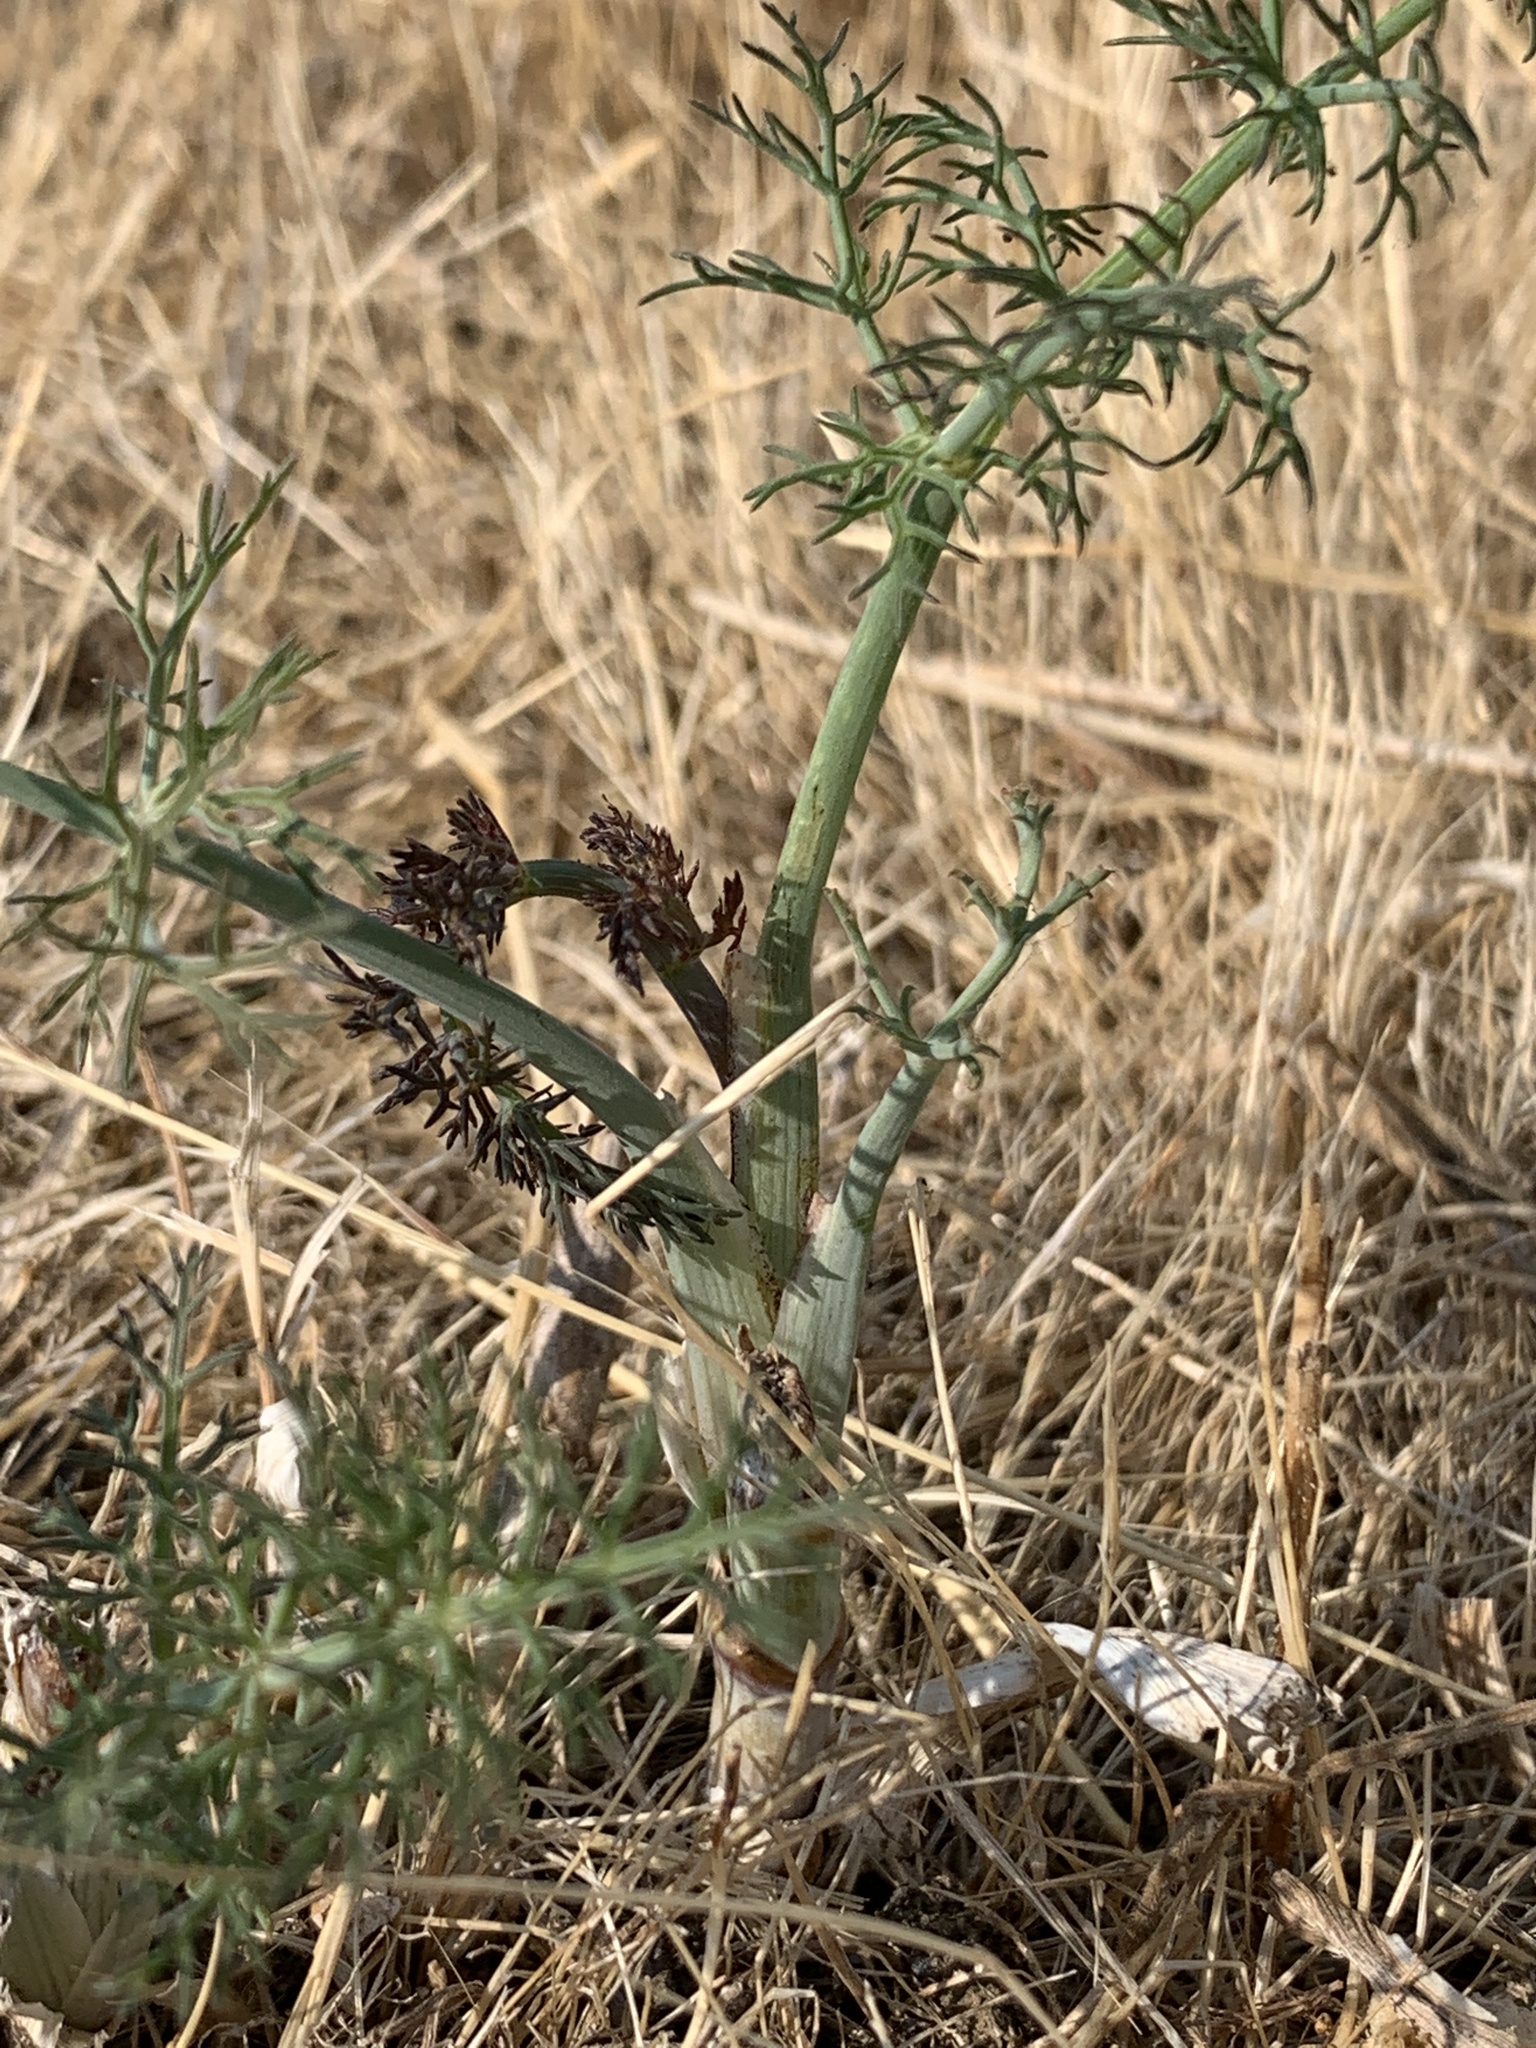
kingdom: Plantae
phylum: Tracheophyta
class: Magnoliopsida
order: Apiales
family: Apiaceae
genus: Foeniculum
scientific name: Foeniculum vulgare
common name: Fennel
